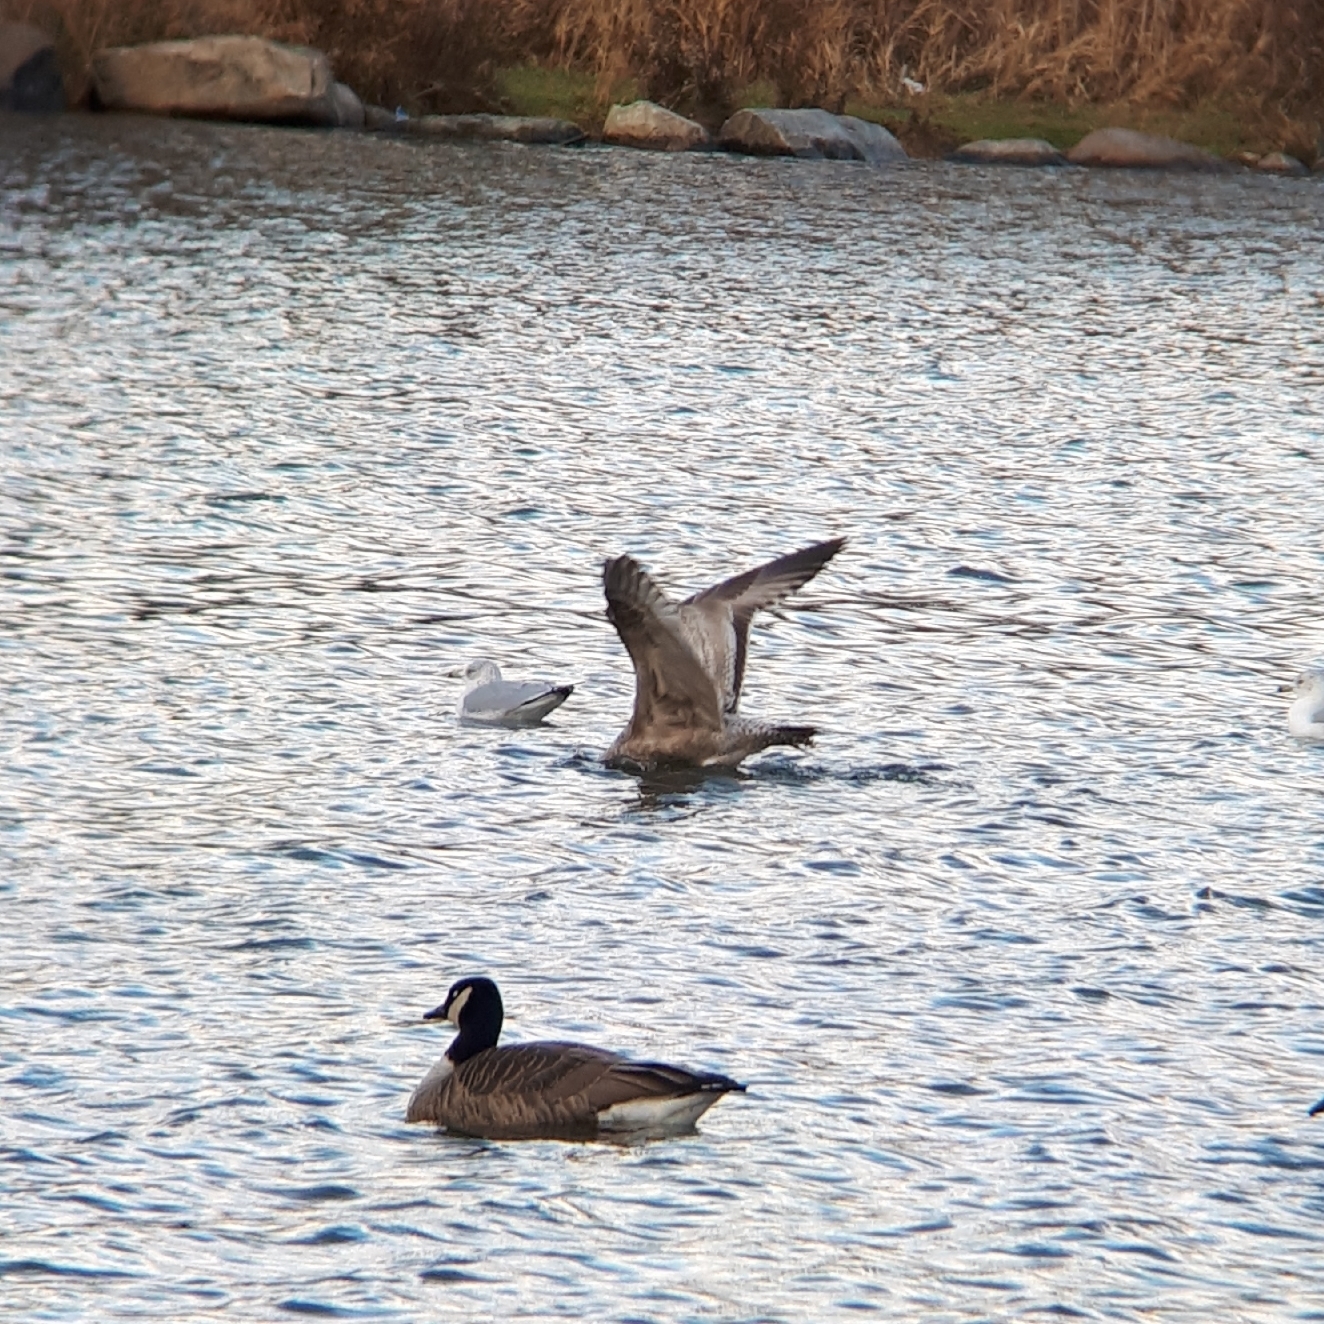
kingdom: Animalia
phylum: Chordata
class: Aves
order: Charadriiformes
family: Laridae
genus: Larus
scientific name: Larus argentatus
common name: Herring gull
